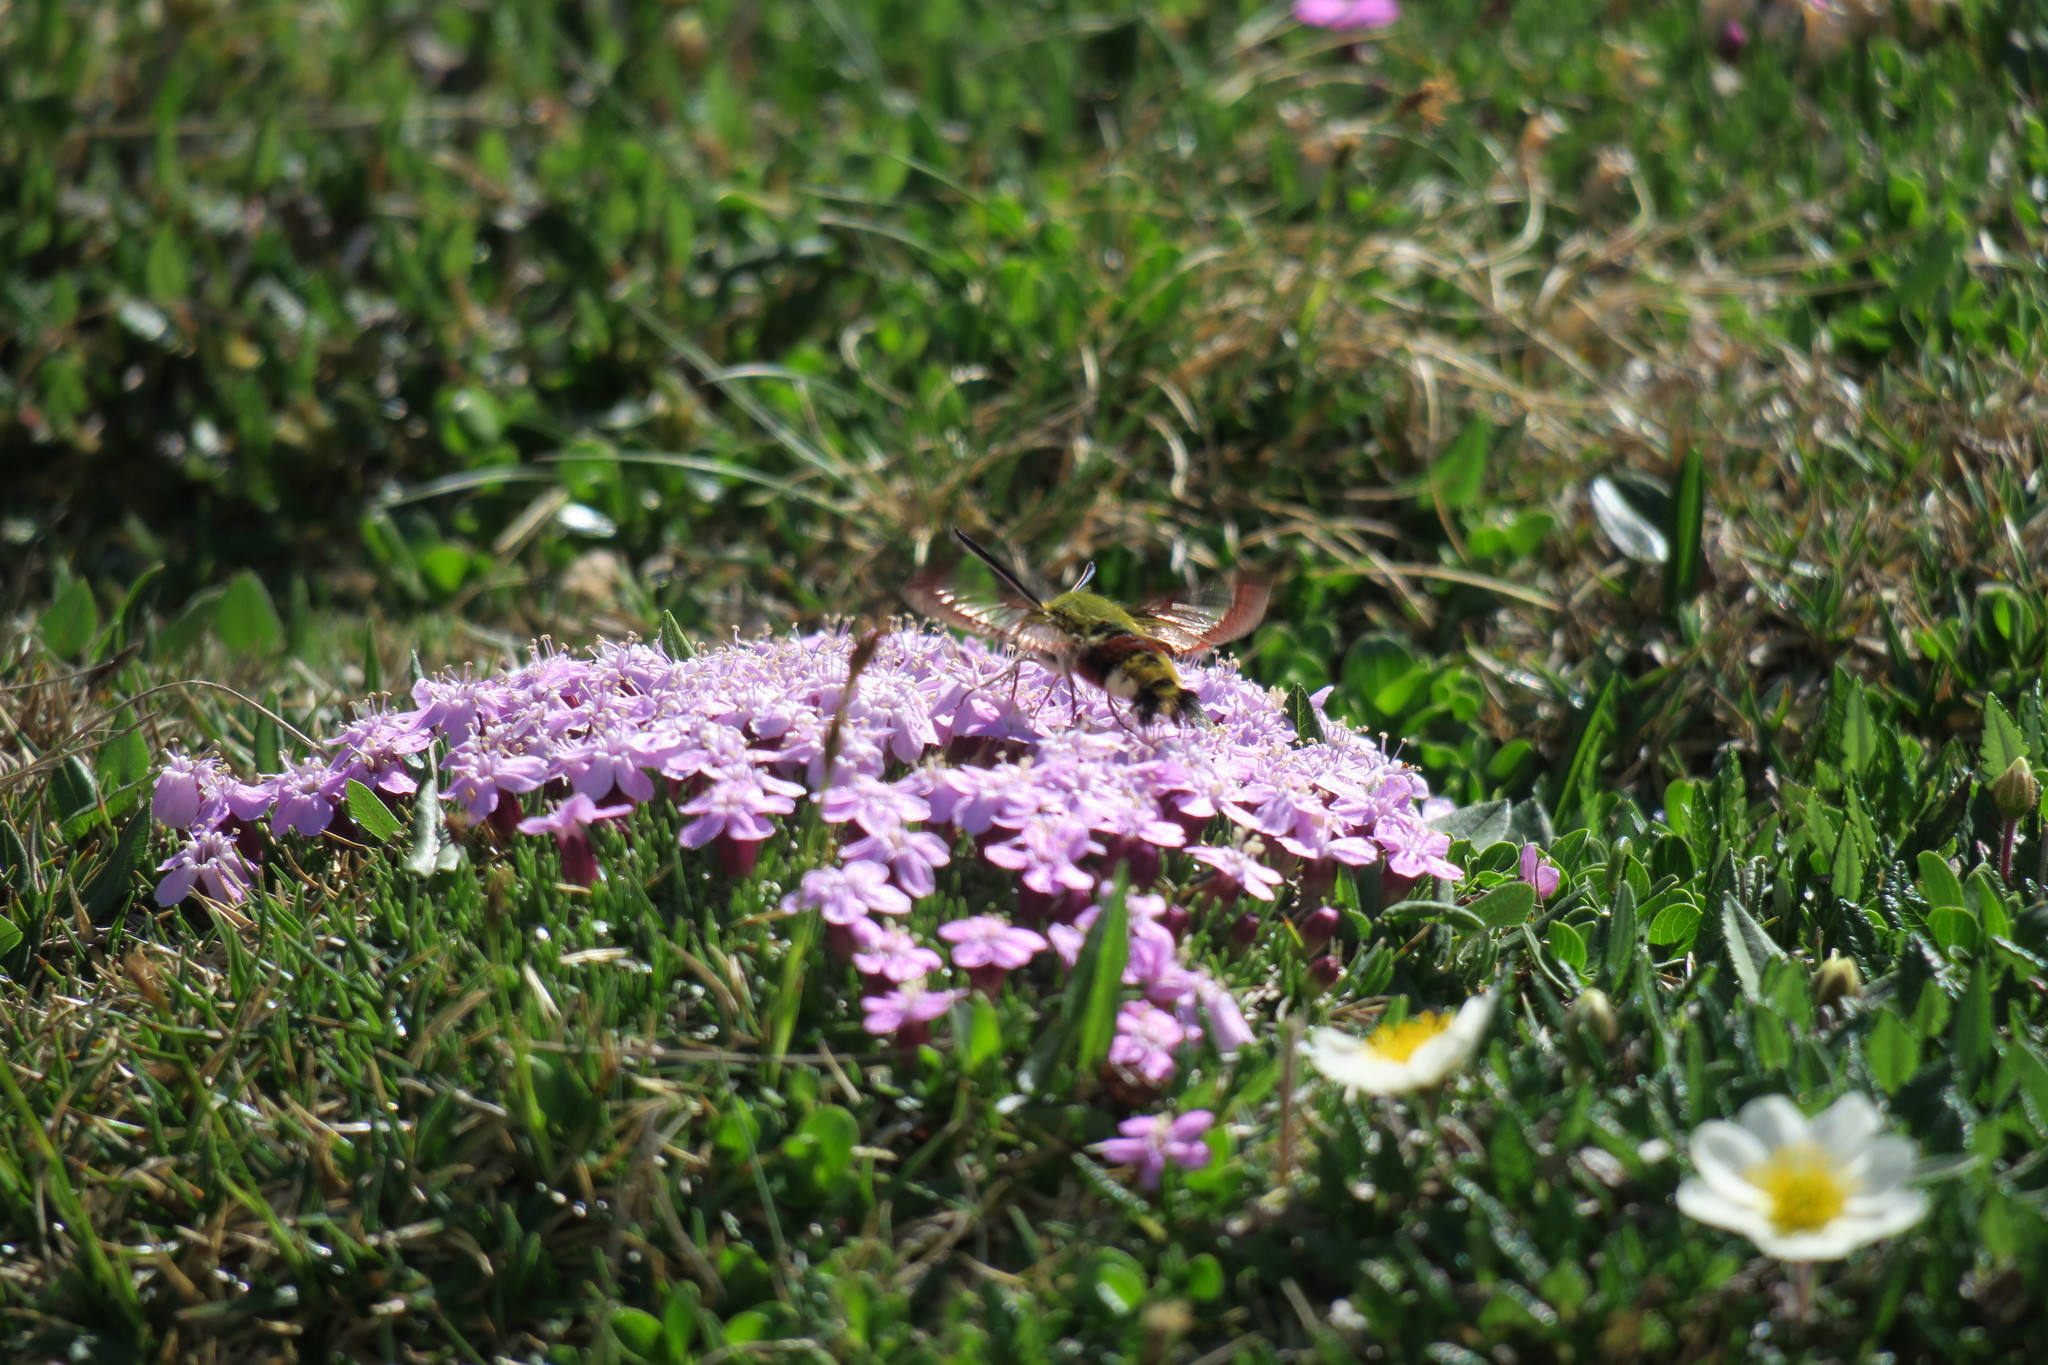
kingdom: Animalia
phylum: Arthropoda
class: Insecta
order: Lepidoptera
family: Sphingidae
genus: Hemaris
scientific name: Hemaris fuciformis
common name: Broad-bordered bee hawk-moth
